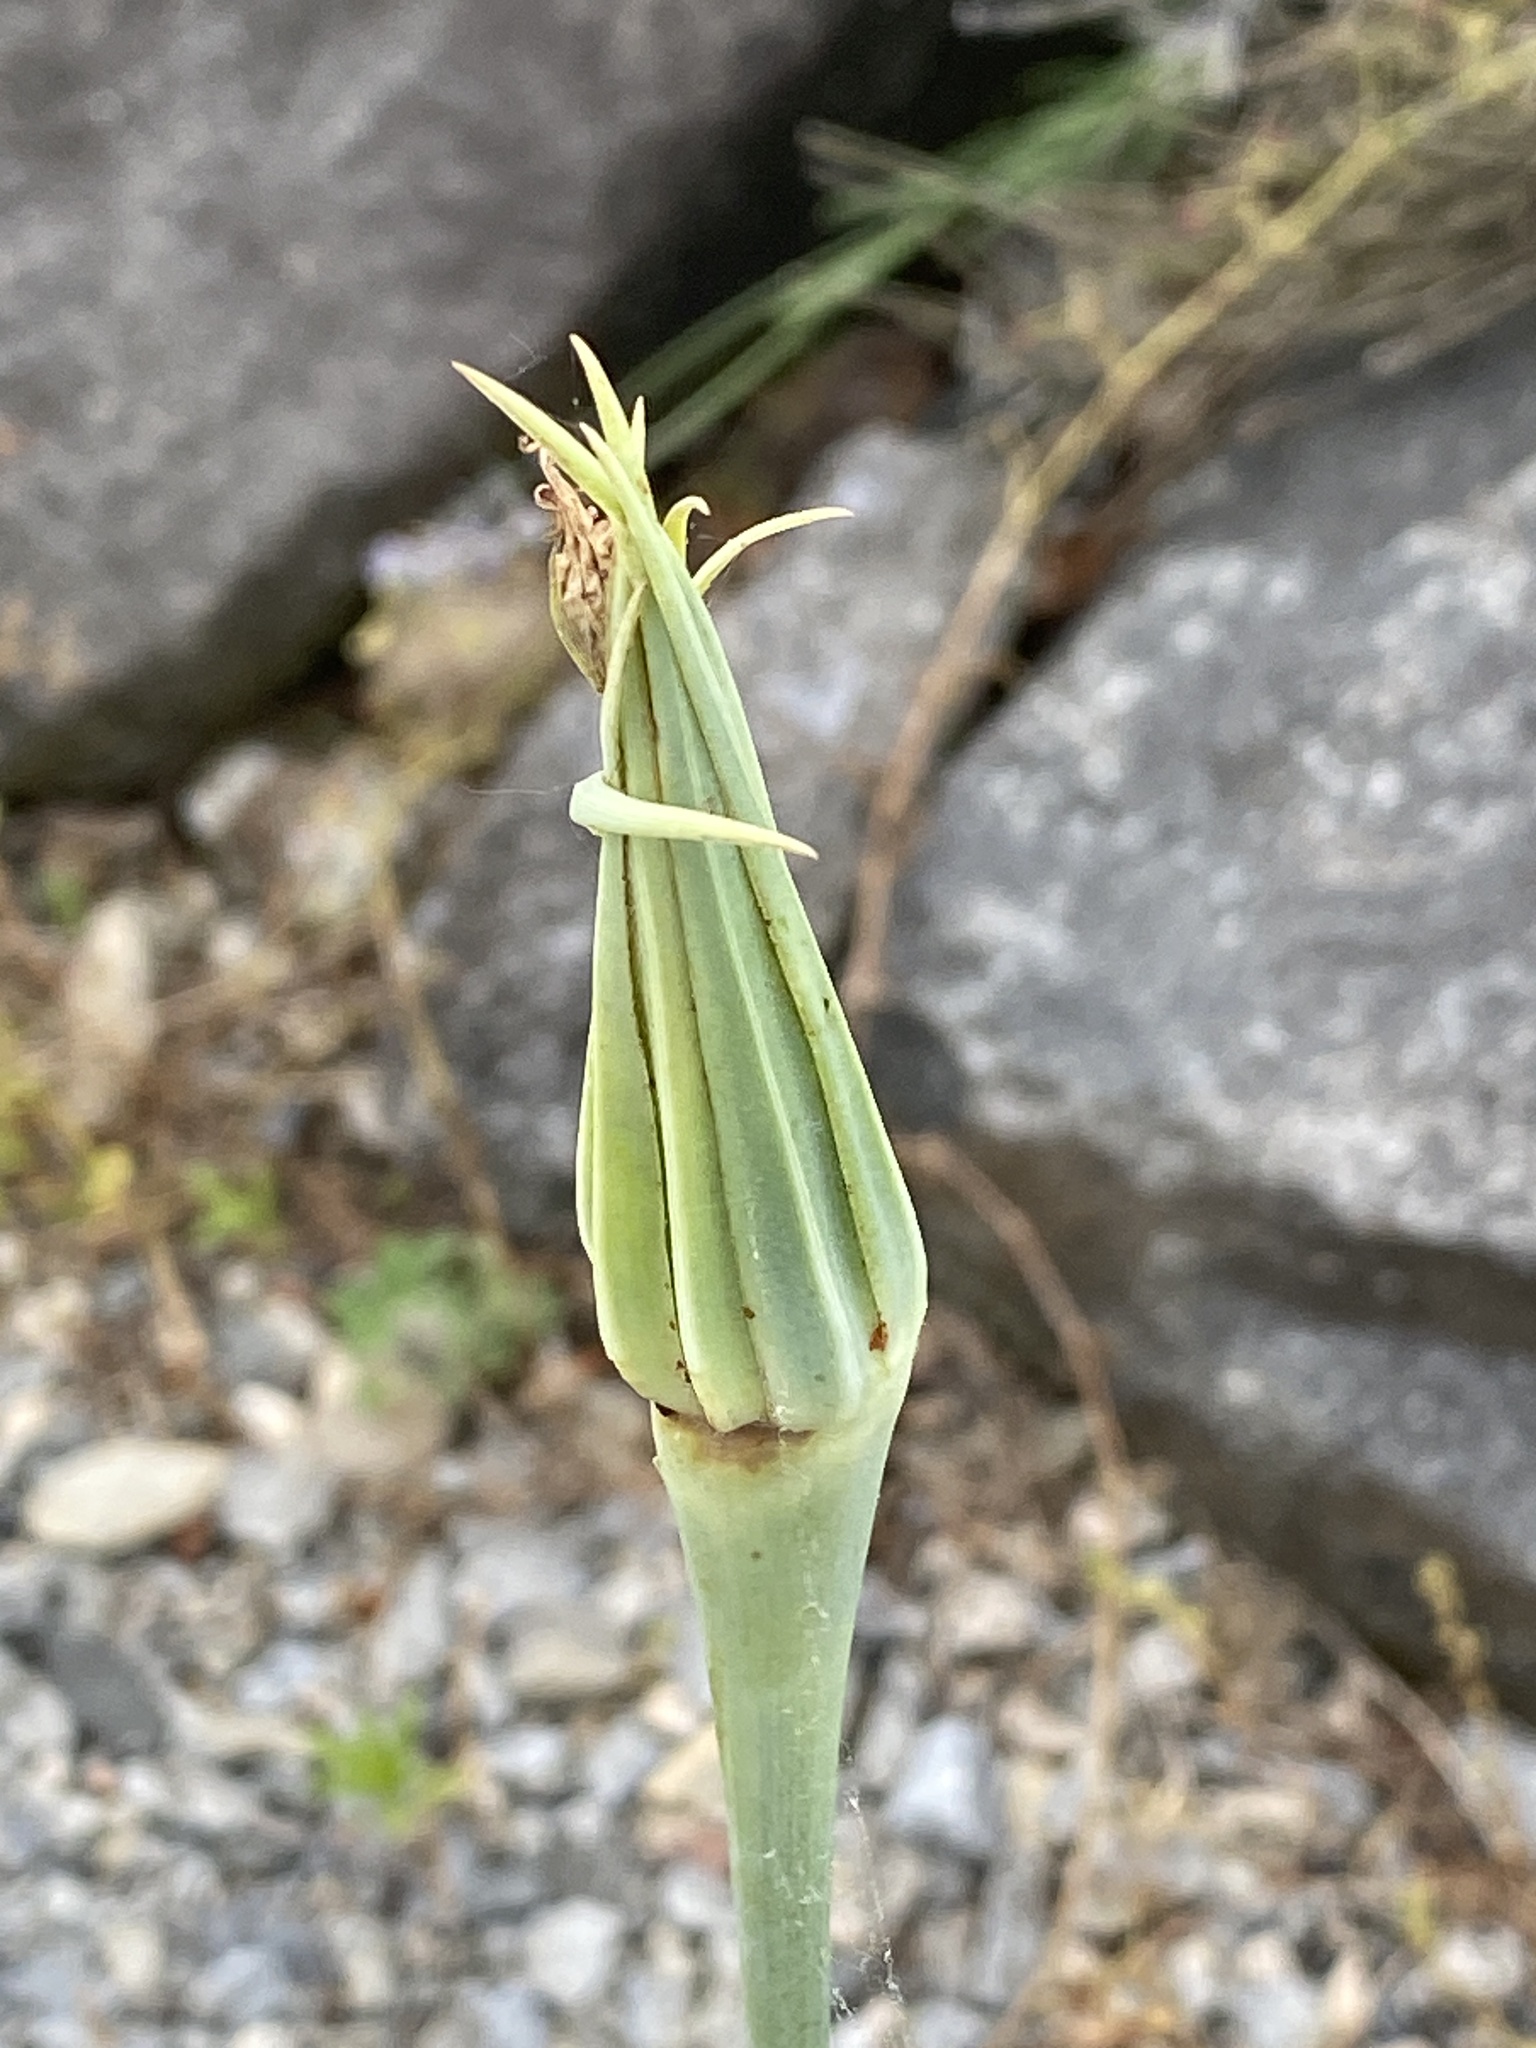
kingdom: Plantae
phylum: Tracheophyta
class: Magnoliopsida
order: Asterales
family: Asteraceae
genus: Tragopogon
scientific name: Tragopogon dubius
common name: Yellow salsify
